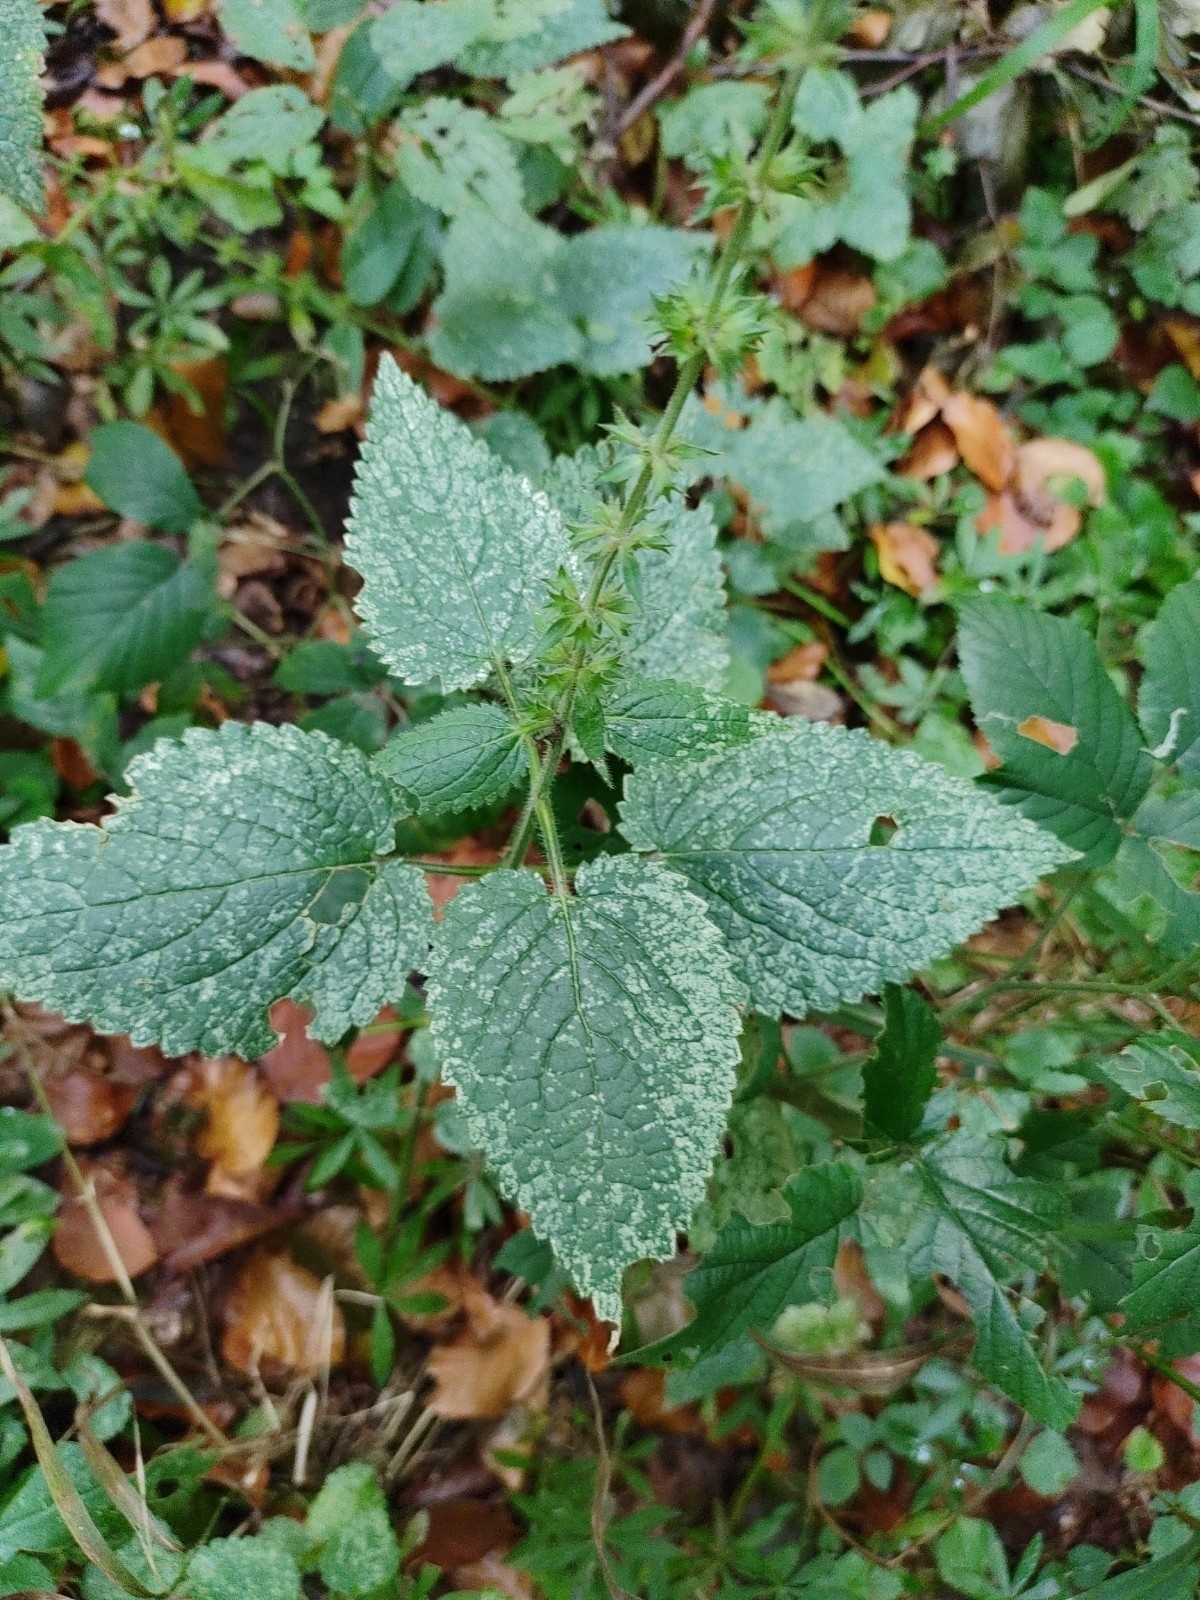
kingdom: Plantae
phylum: Tracheophyta
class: Magnoliopsida
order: Lamiales
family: Lamiaceae
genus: Stachys
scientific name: Stachys sylvatica
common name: Hedge woundwort
